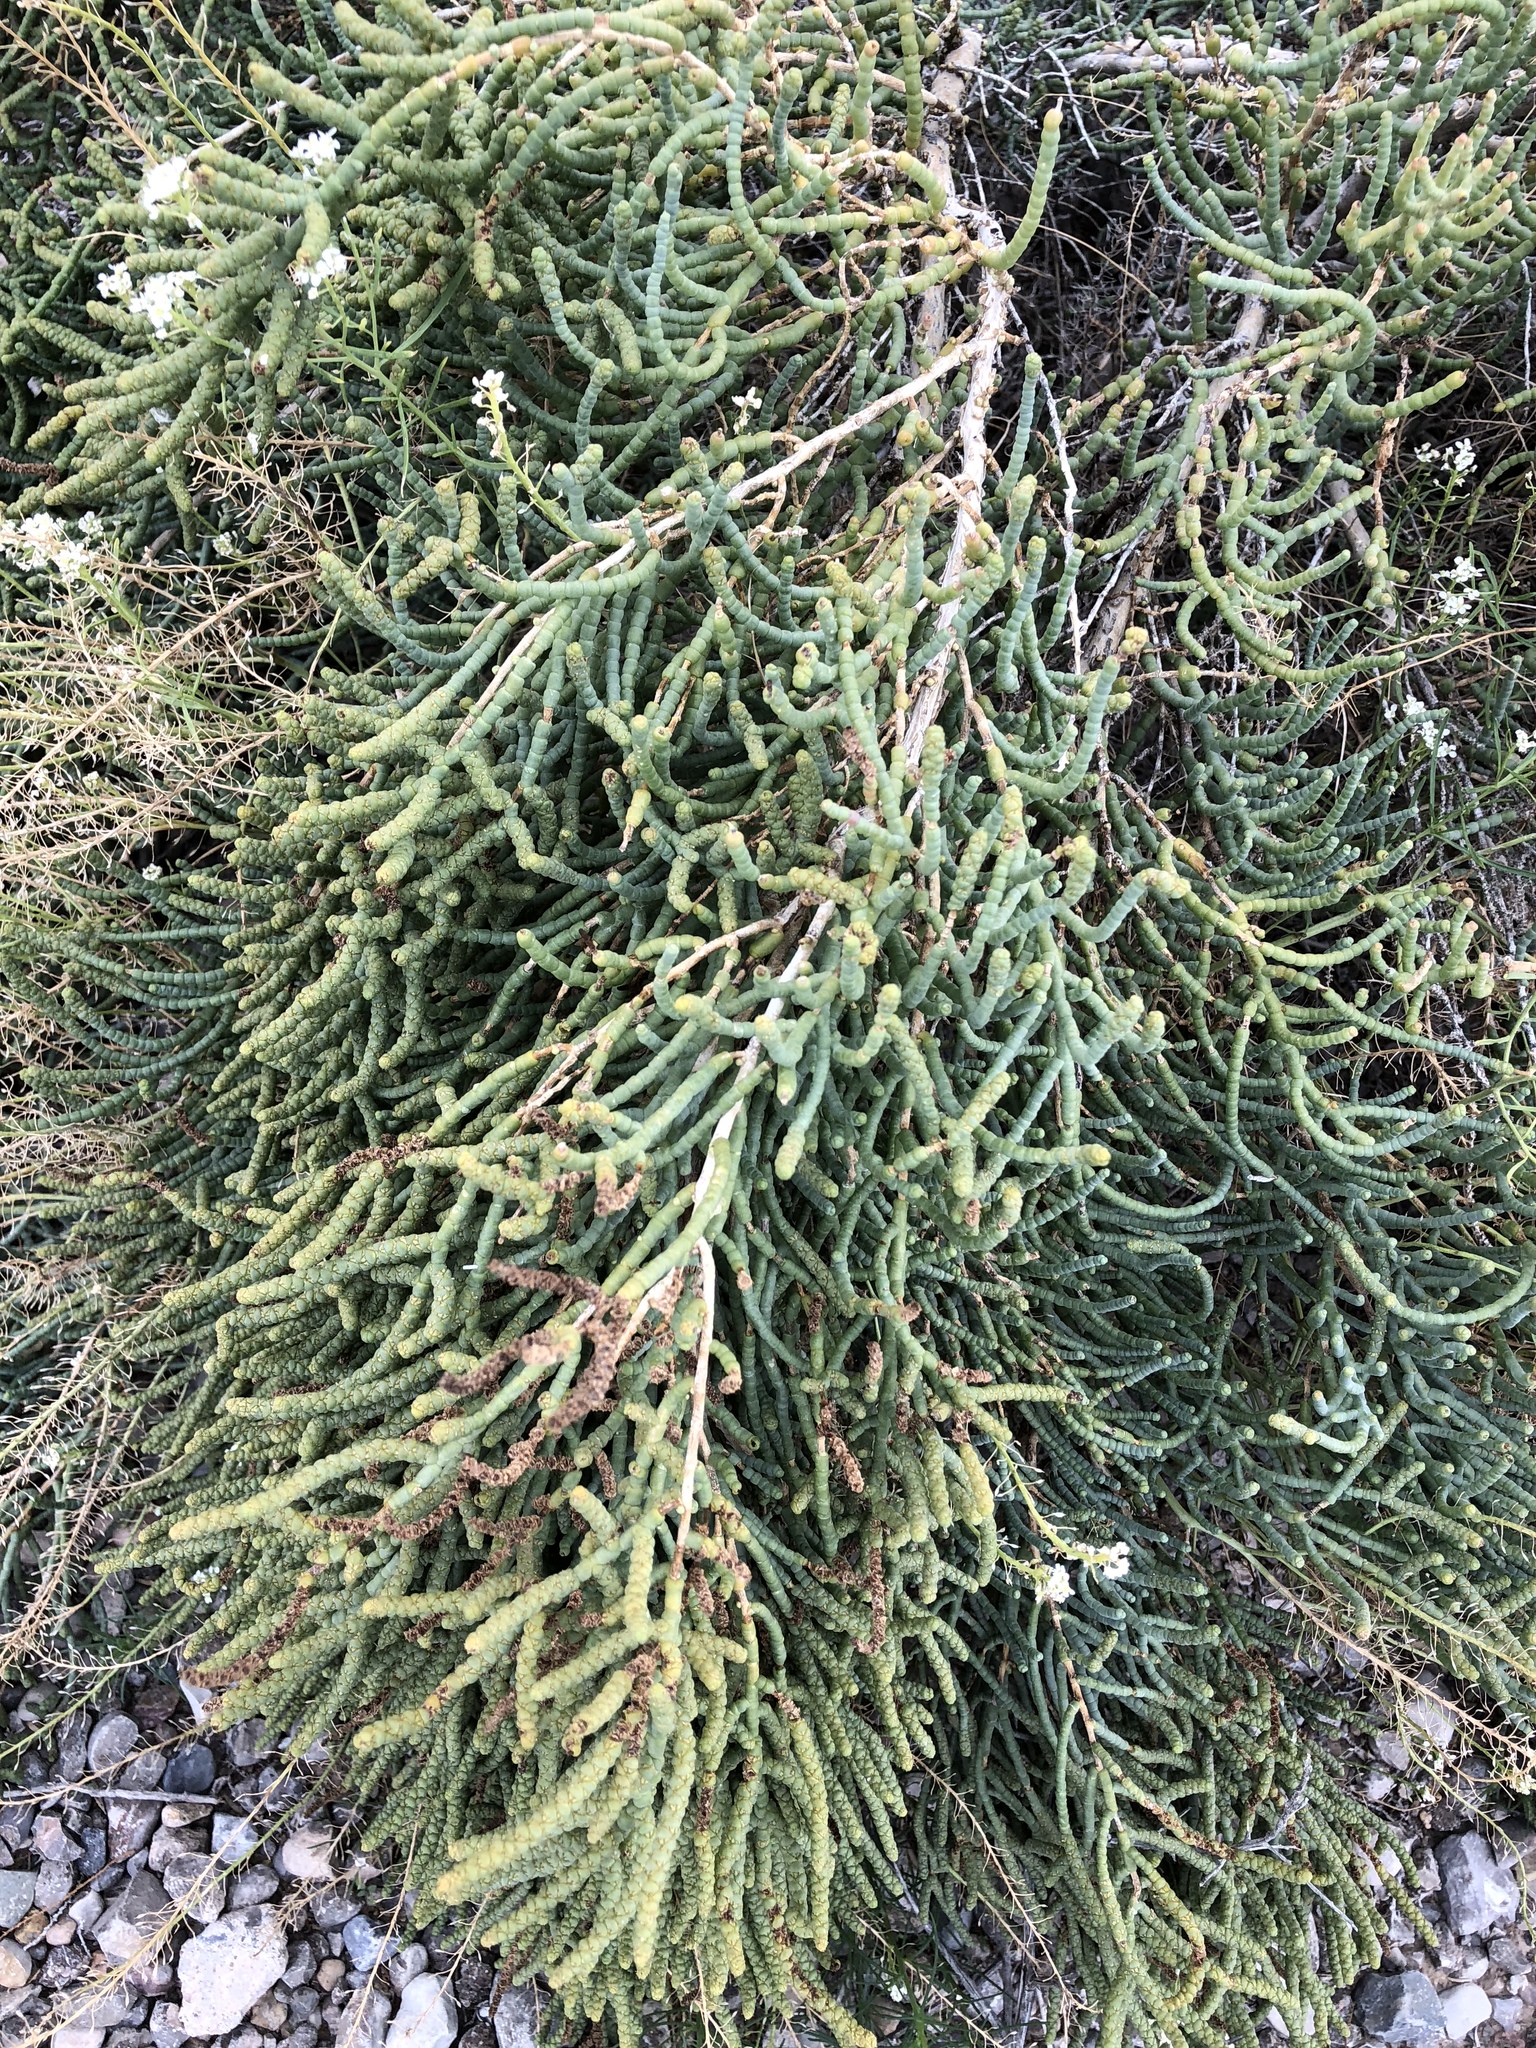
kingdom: Plantae
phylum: Tracheophyta
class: Magnoliopsida
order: Caryophyllales
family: Amaranthaceae
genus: Allenrolfea
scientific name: Allenrolfea occidentalis
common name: Iodine-bush
